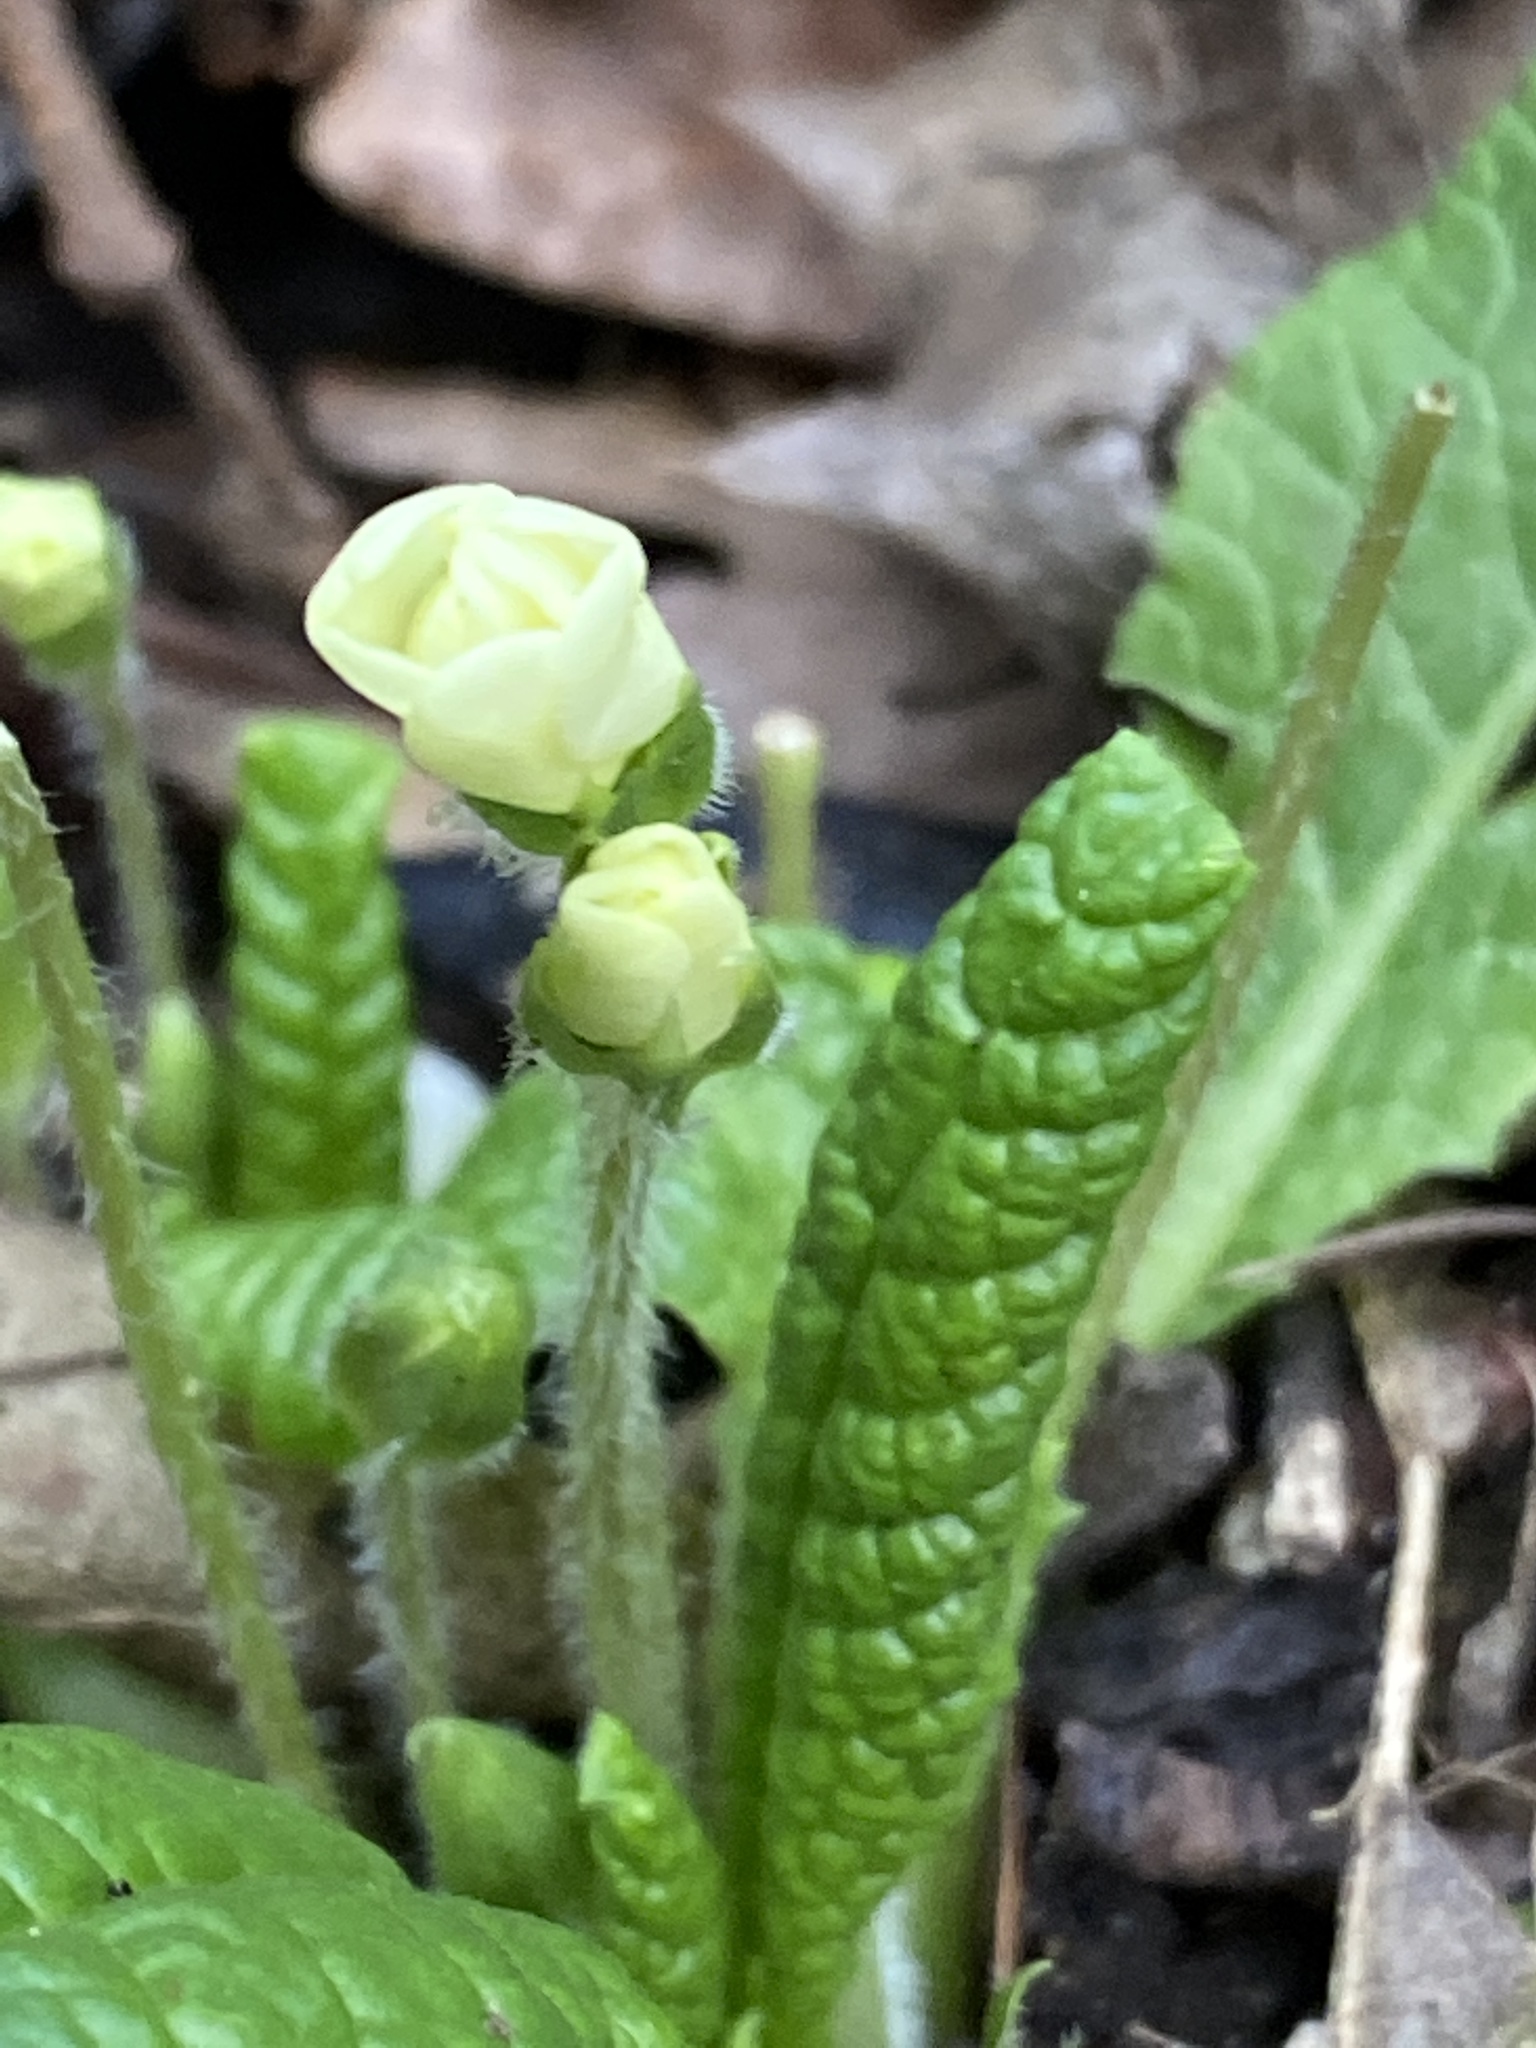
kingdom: Plantae
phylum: Tracheophyta
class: Magnoliopsida
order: Ericales
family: Primulaceae
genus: Primula
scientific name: Primula vulgaris
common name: Primrose
